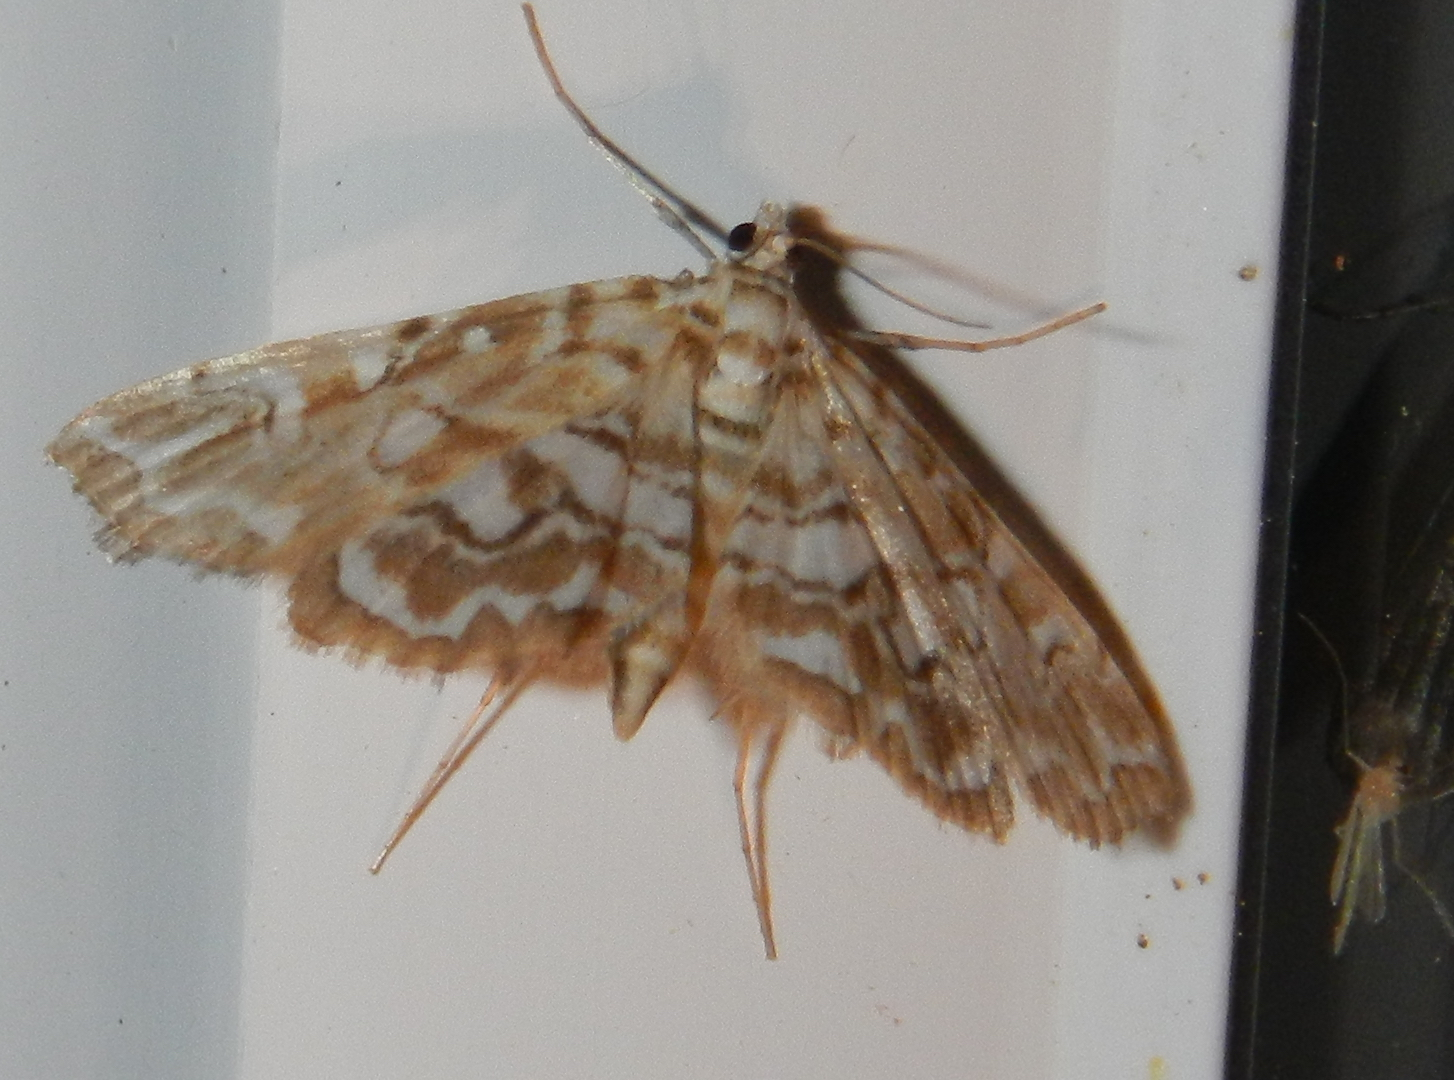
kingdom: Animalia
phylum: Arthropoda
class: Insecta
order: Lepidoptera
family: Crambidae
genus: Elophila
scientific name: Elophila icciusalis
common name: Pondside pyralid moth
